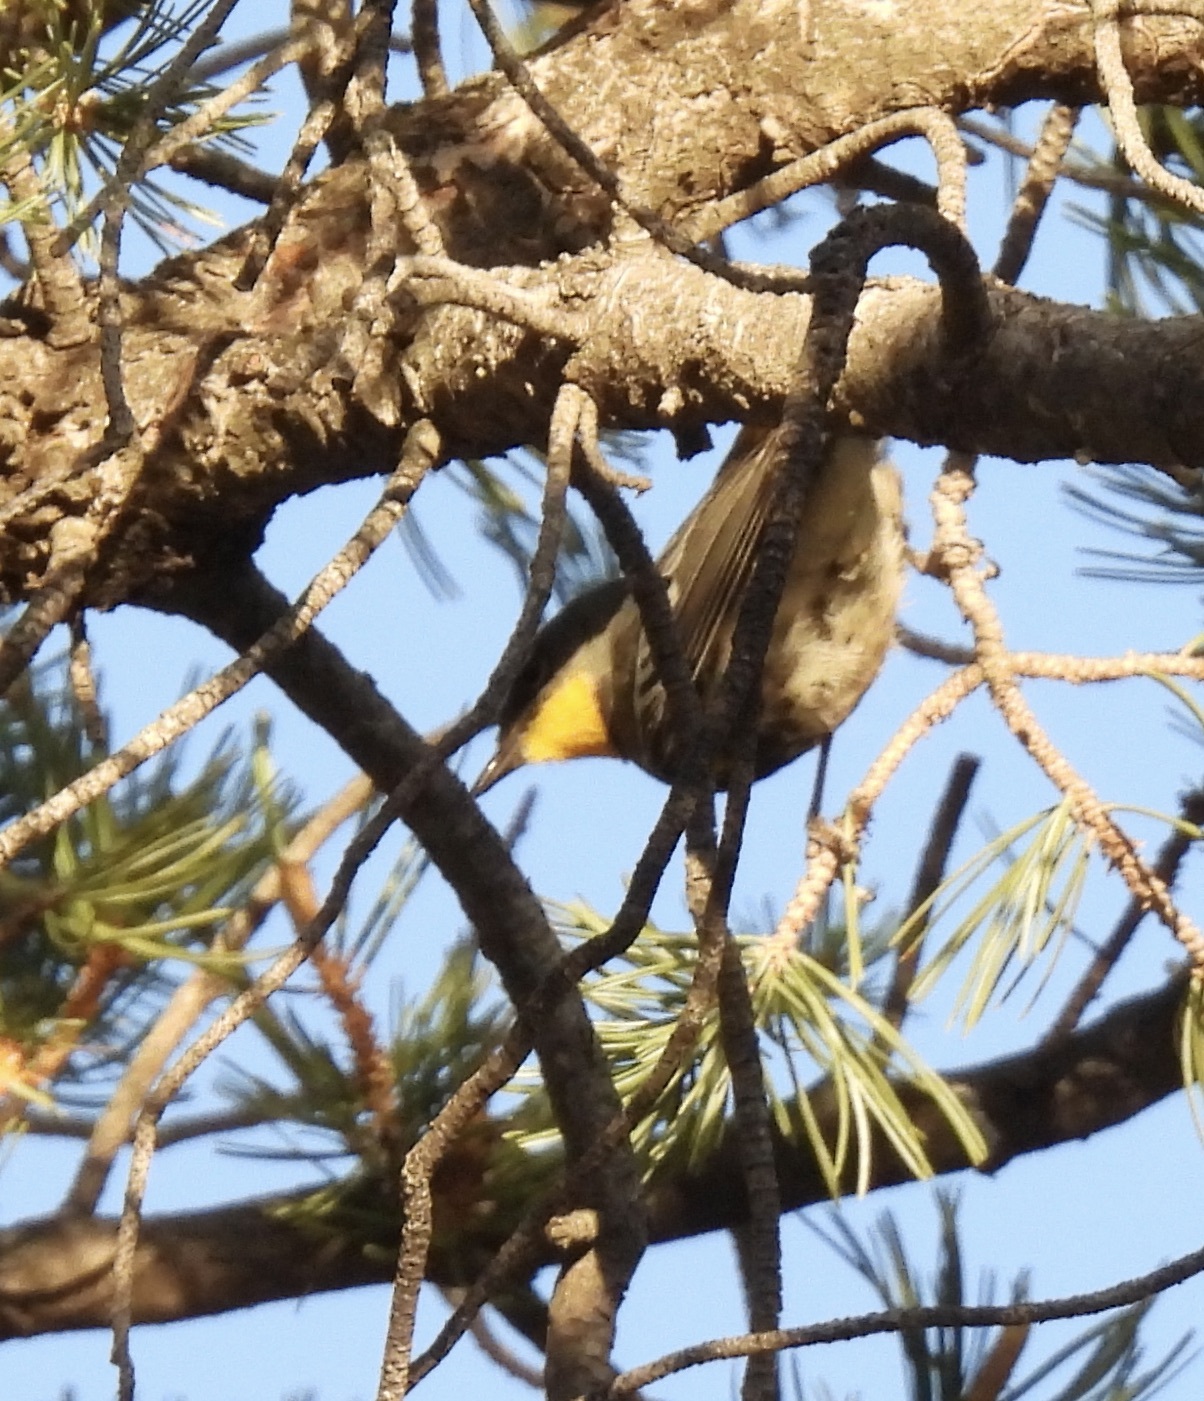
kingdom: Animalia
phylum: Chordata
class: Aves
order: Passeriformes
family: Parulidae
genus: Setophaga
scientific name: Setophaga auduboni
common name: Audubon's warbler
